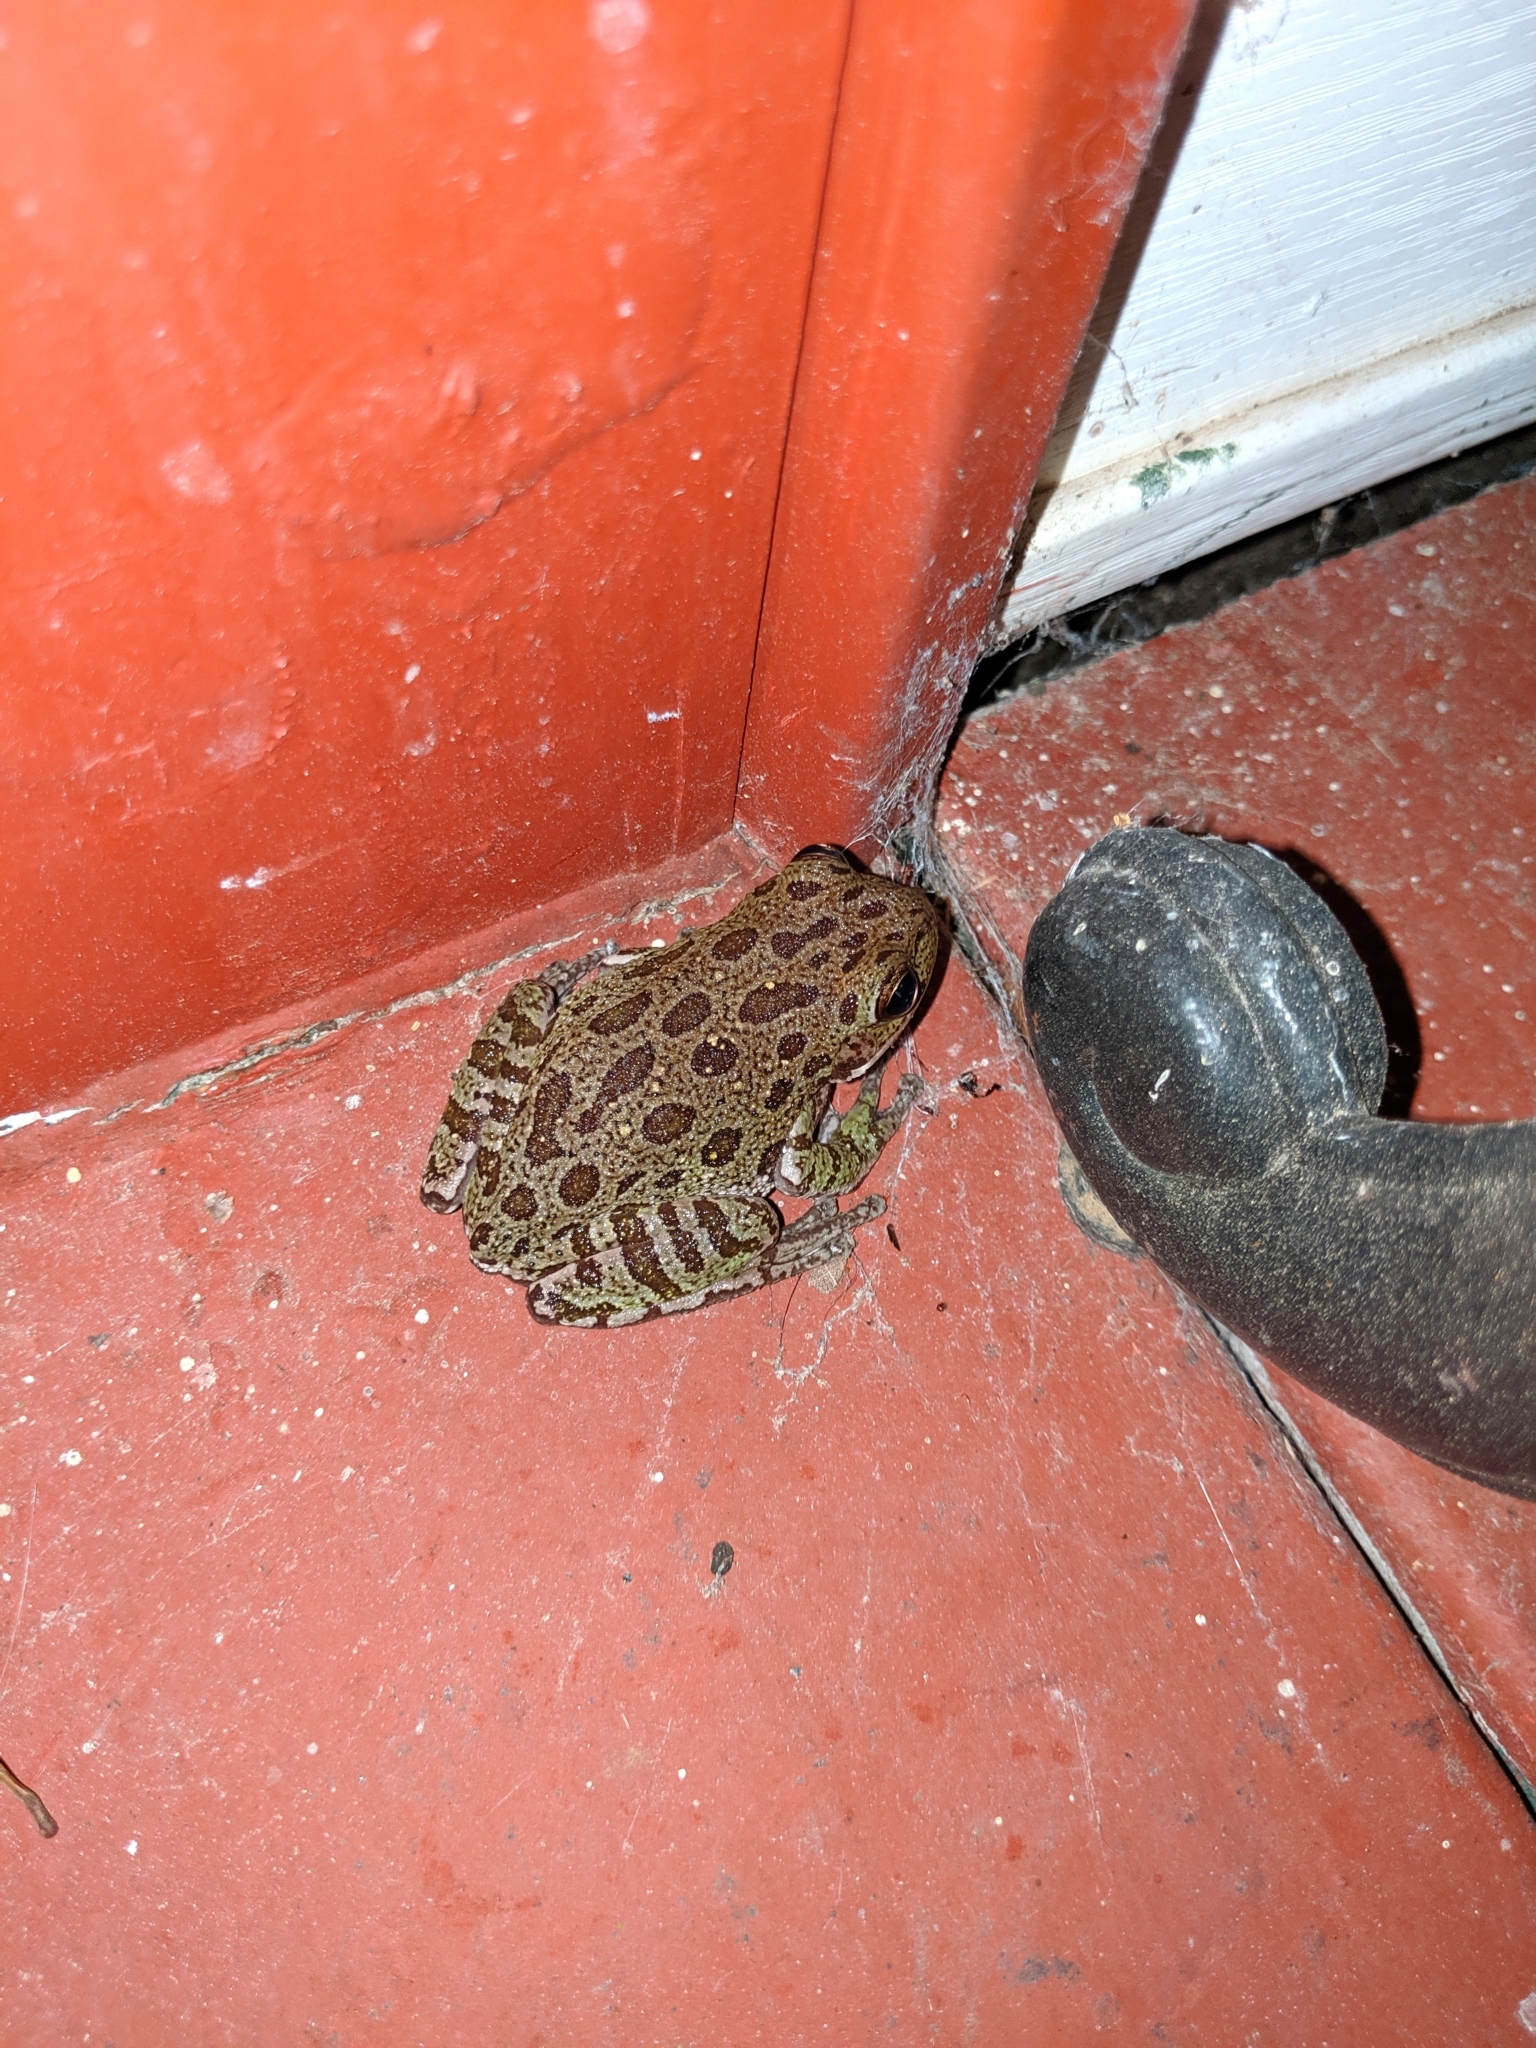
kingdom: Animalia
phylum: Chordata
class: Amphibia
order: Anura
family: Hylidae
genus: Dryophytes
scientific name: Dryophytes gratiosus
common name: Barking treefrog
